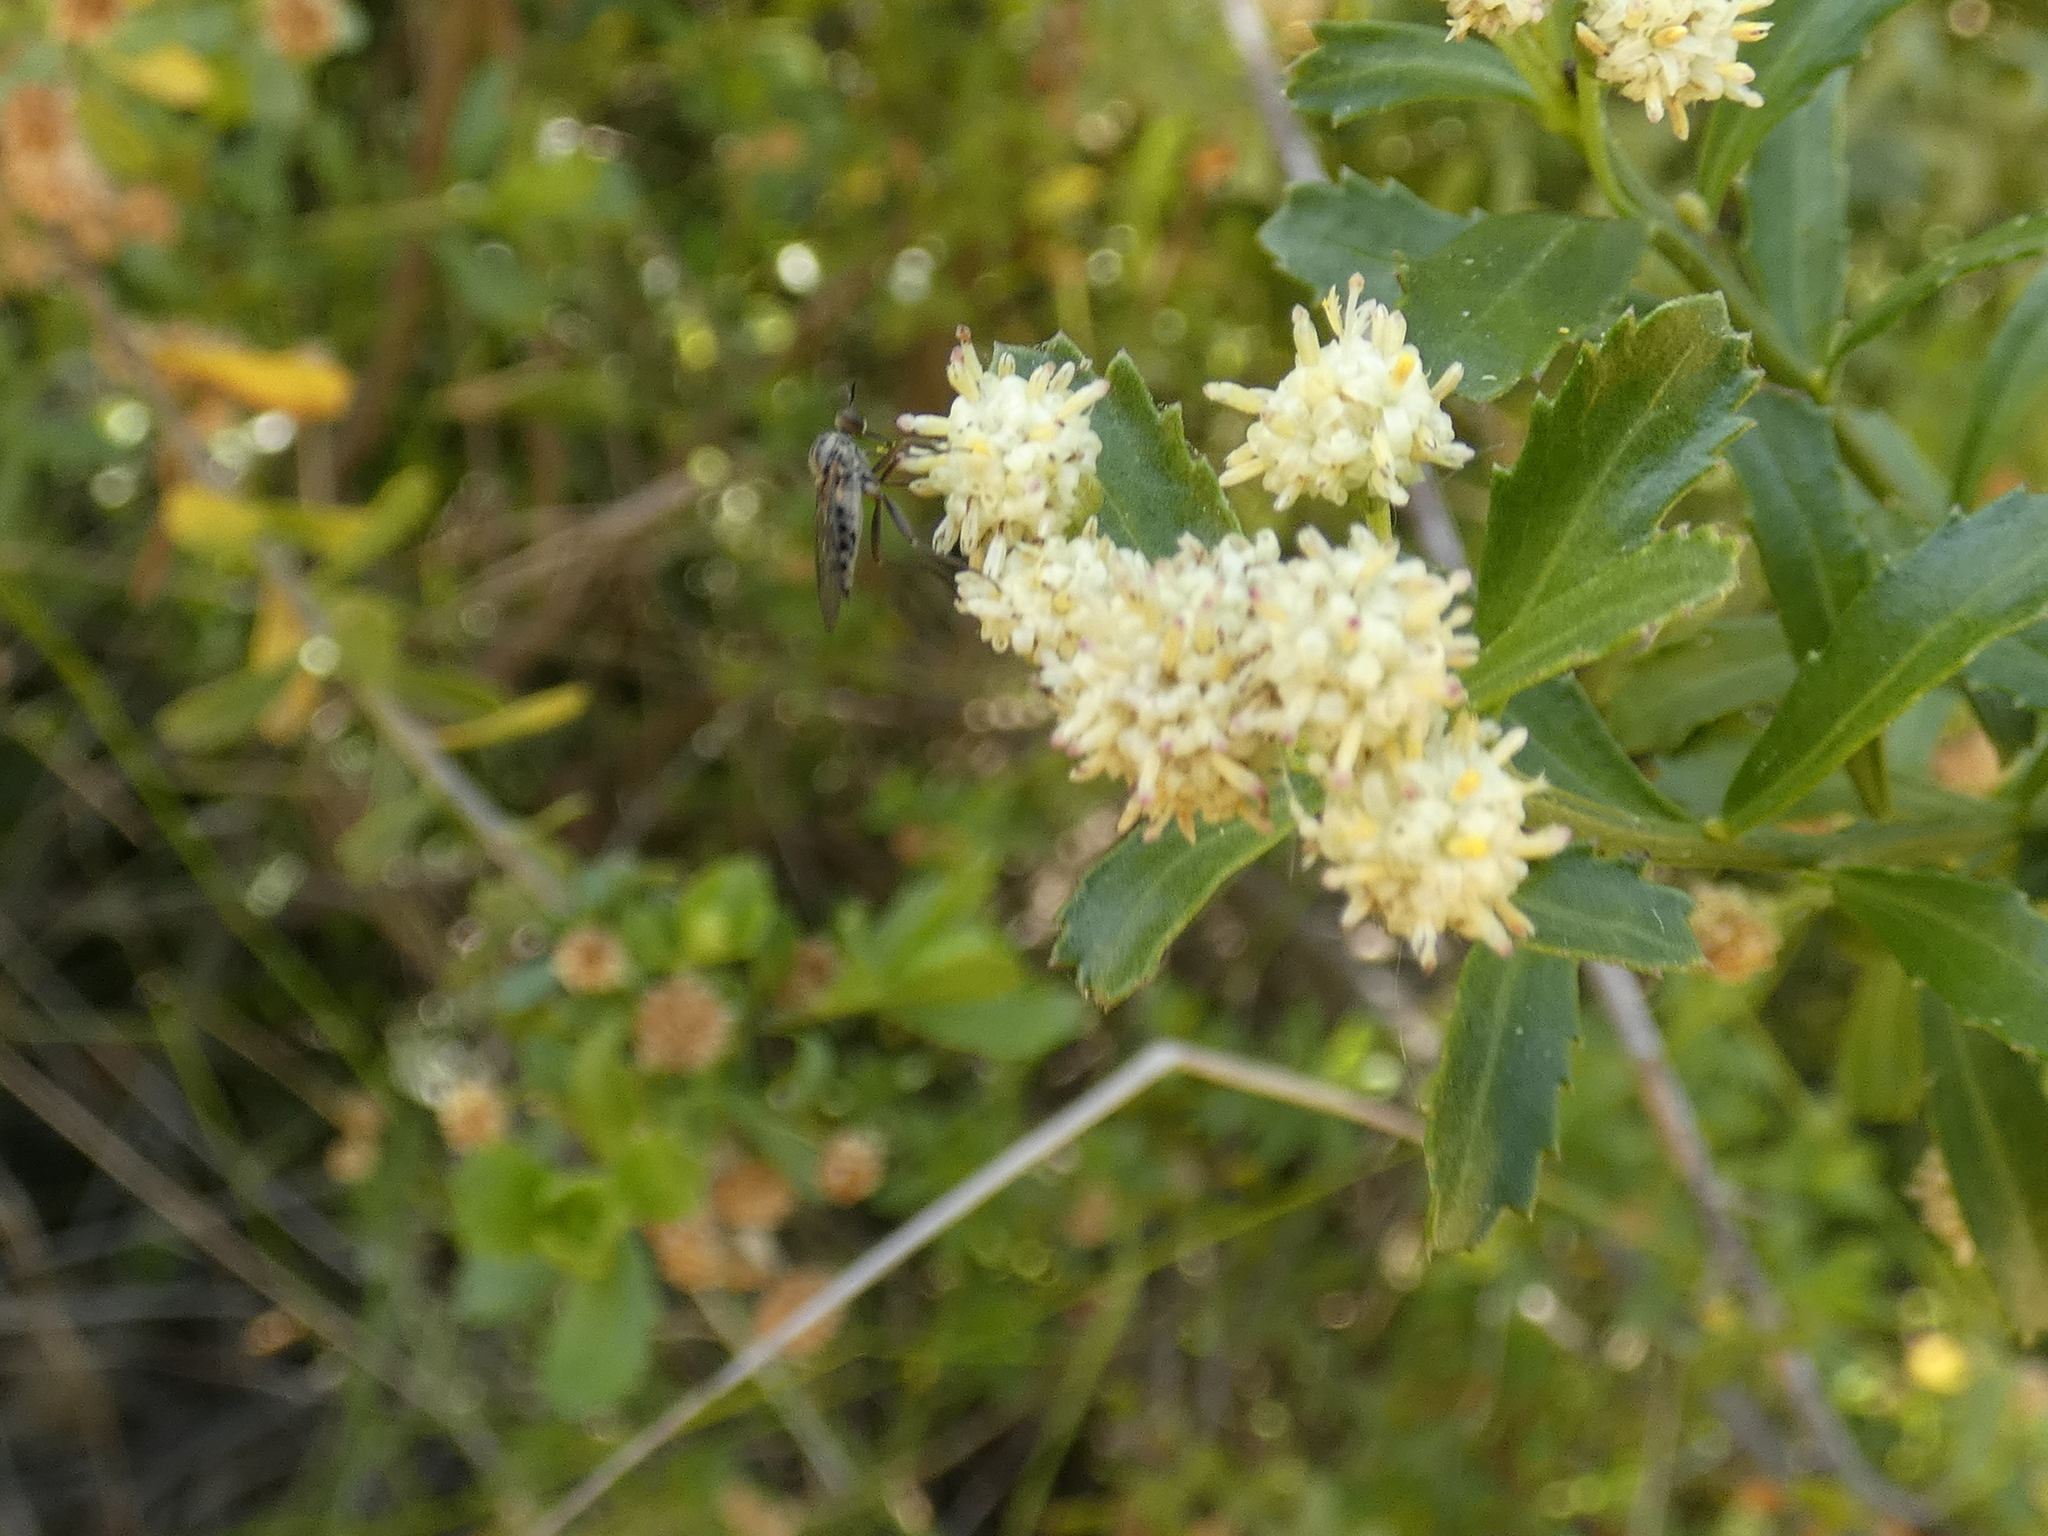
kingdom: Plantae
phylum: Tracheophyta
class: Magnoliopsida
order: Asterales
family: Asteraceae
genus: Baccharis
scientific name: Baccharis concava
